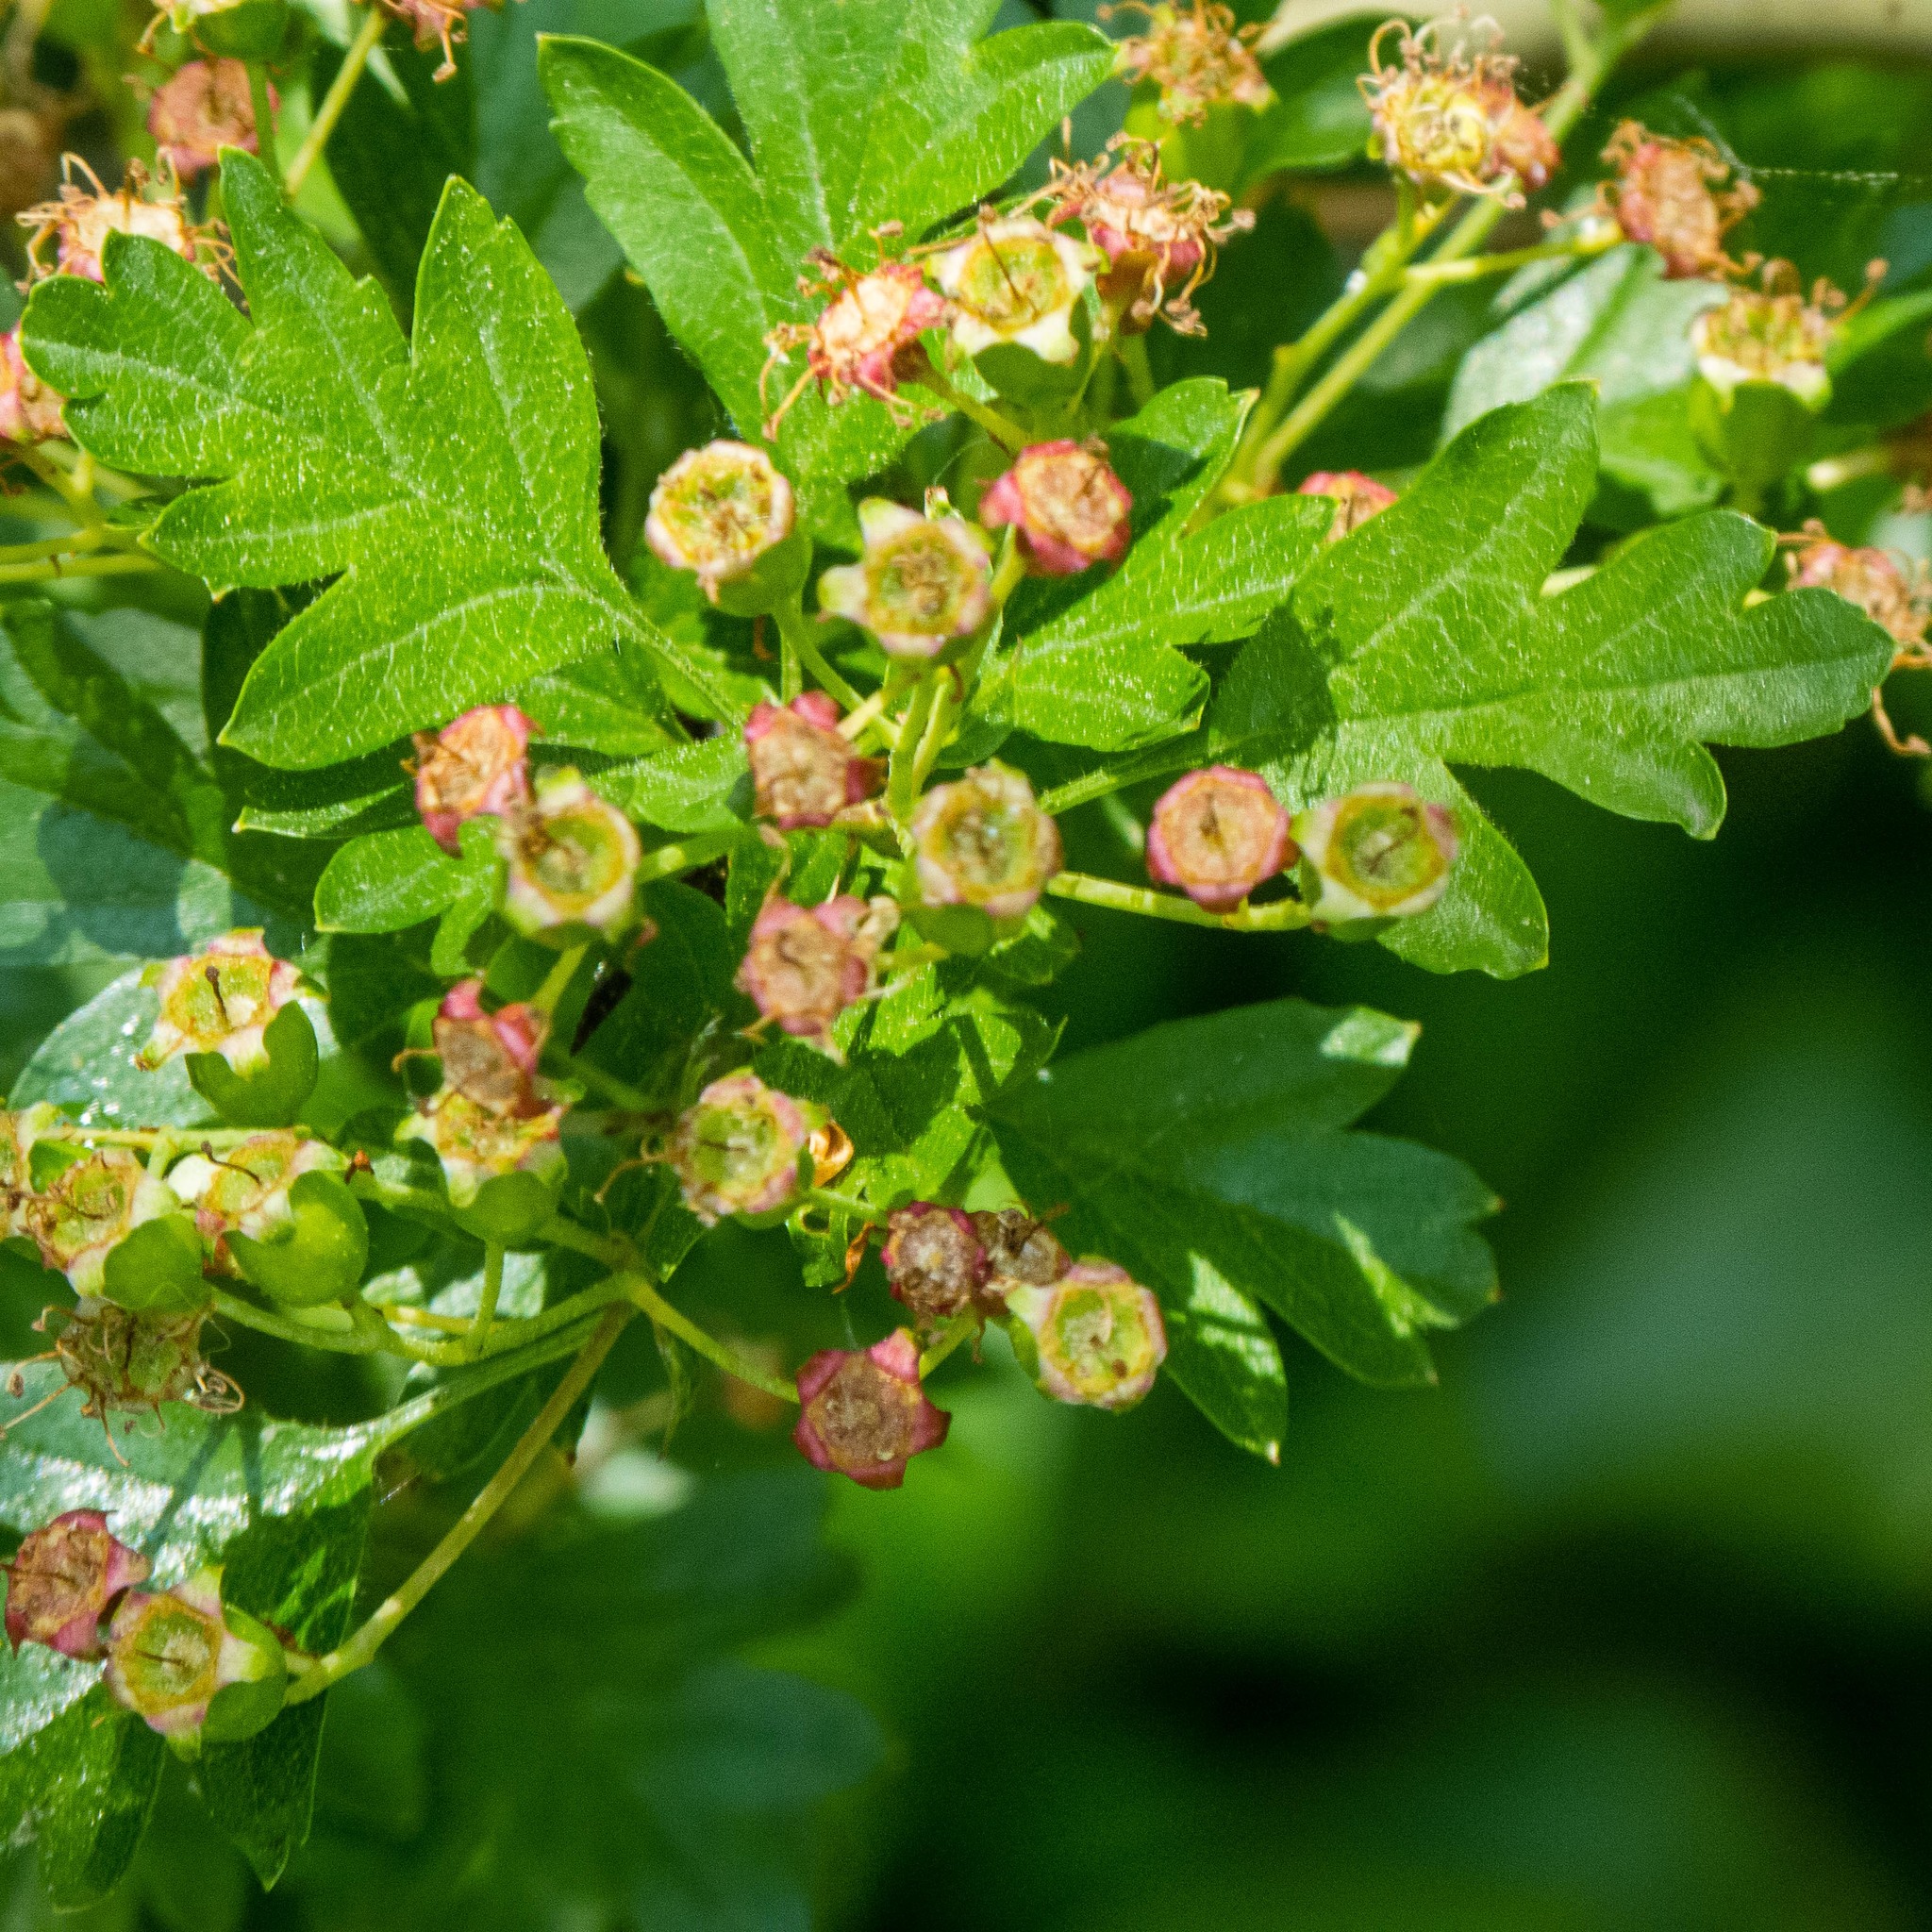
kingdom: Plantae
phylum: Tracheophyta
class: Magnoliopsida
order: Rosales
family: Rosaceae
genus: Crataegus
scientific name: Crataegus monogyna
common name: Hawthorn
